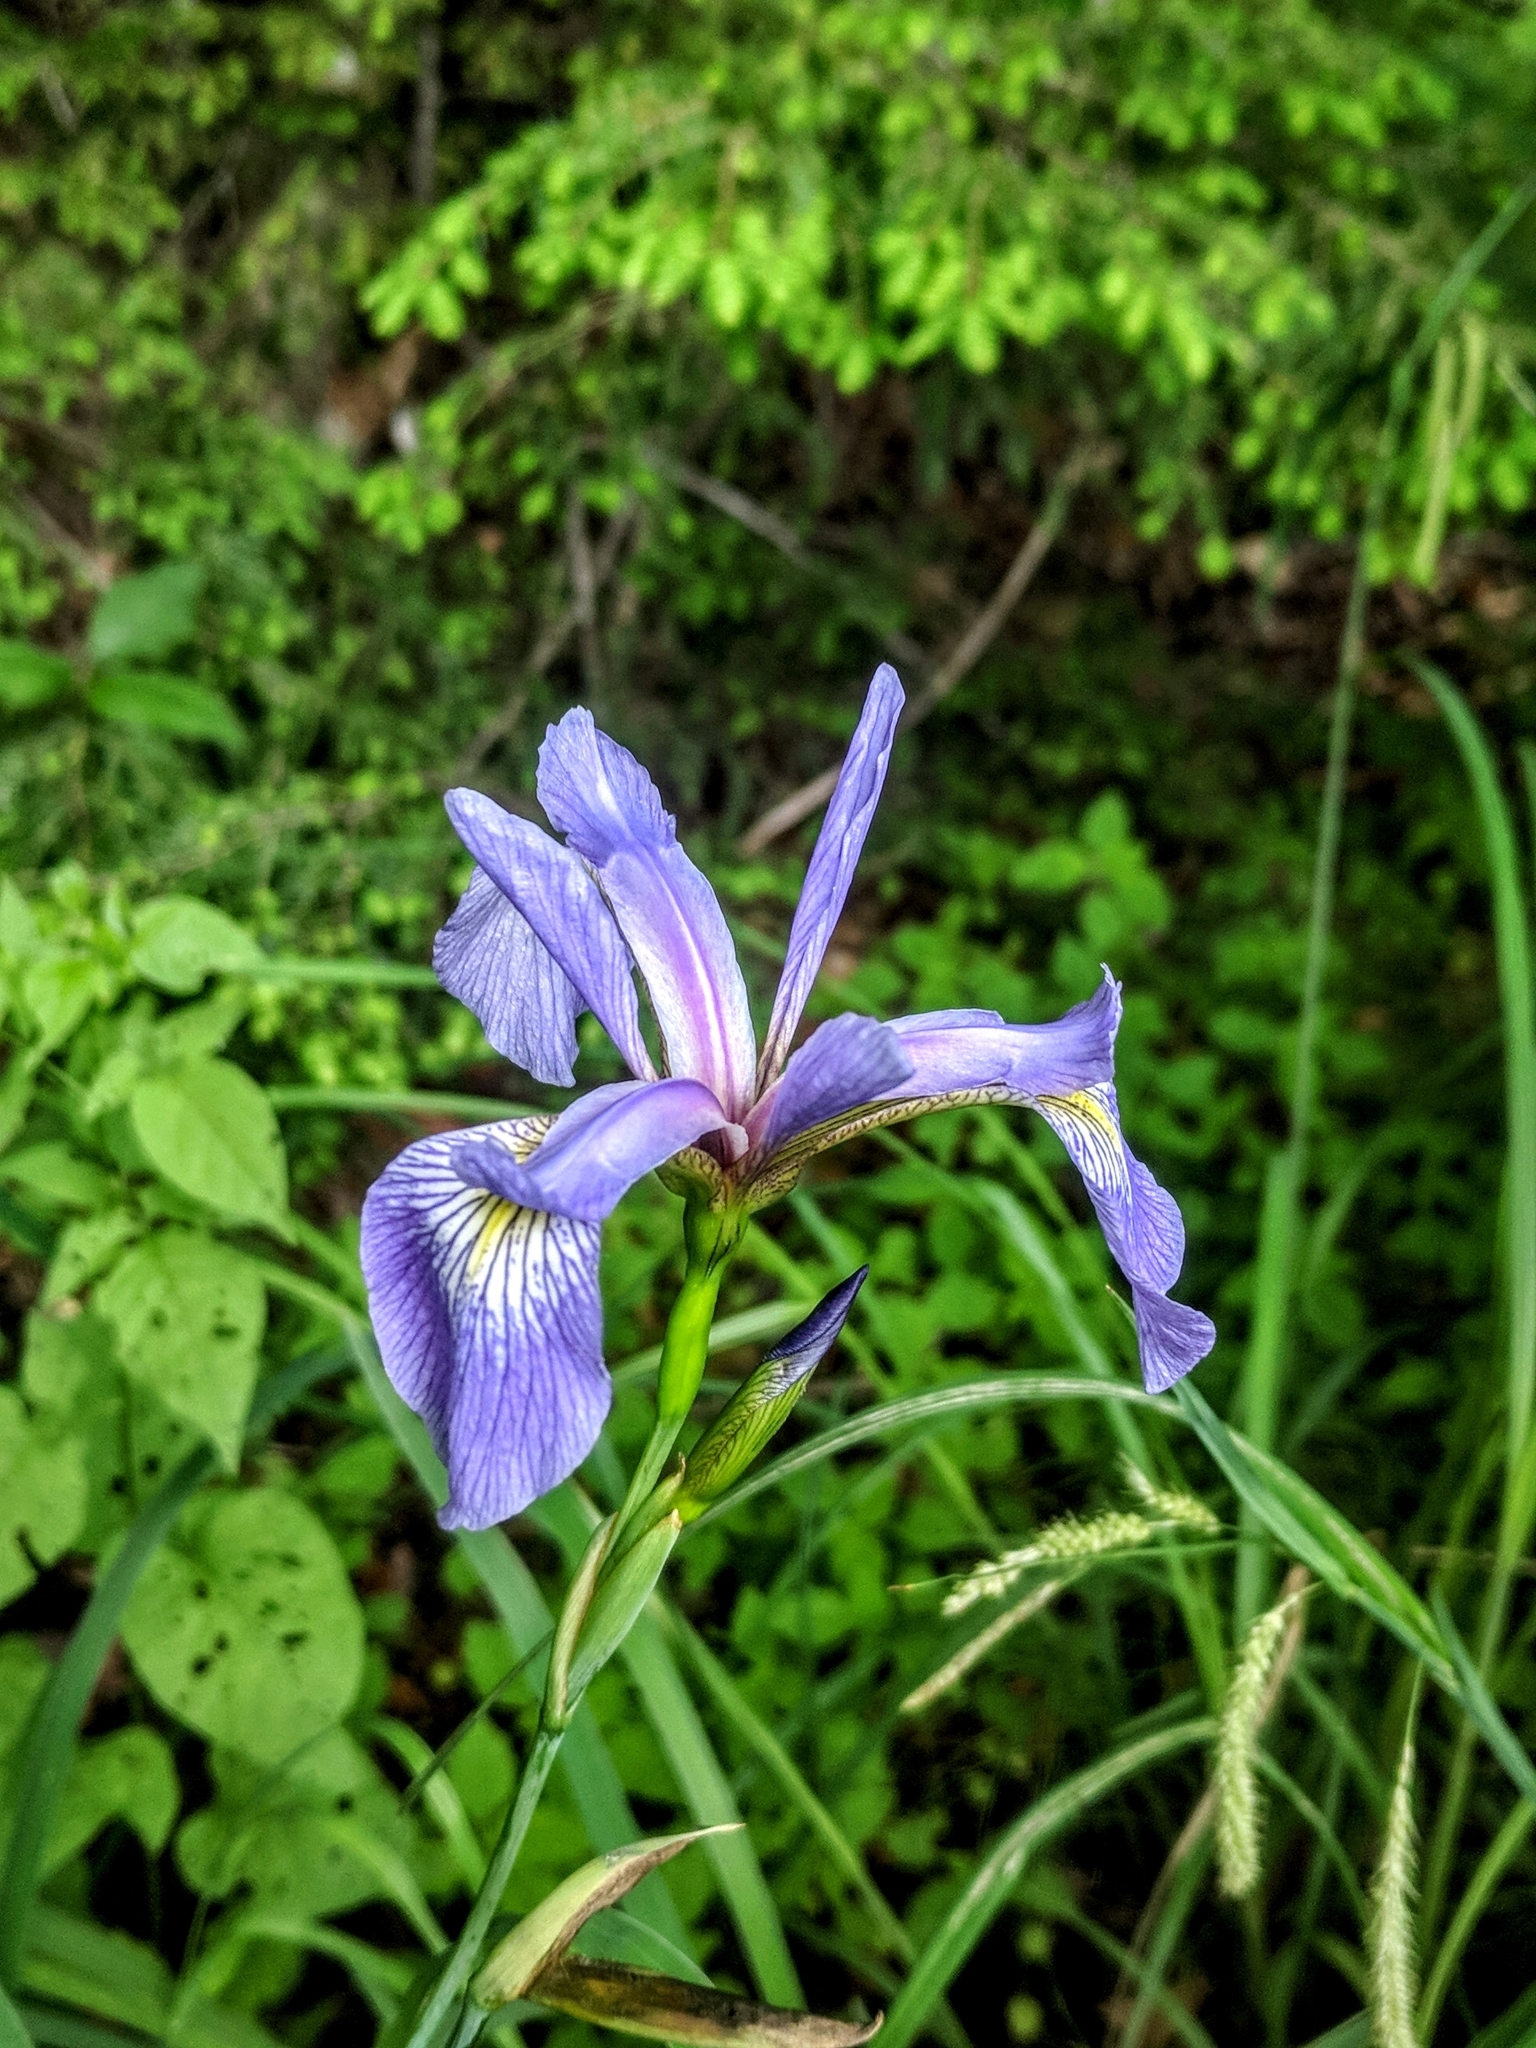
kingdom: Plantae
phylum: Tracheophyta
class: Liliopsida
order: Asparagales
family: Iridaceae
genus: Iris
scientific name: Iris versicolor
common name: Purple iris
